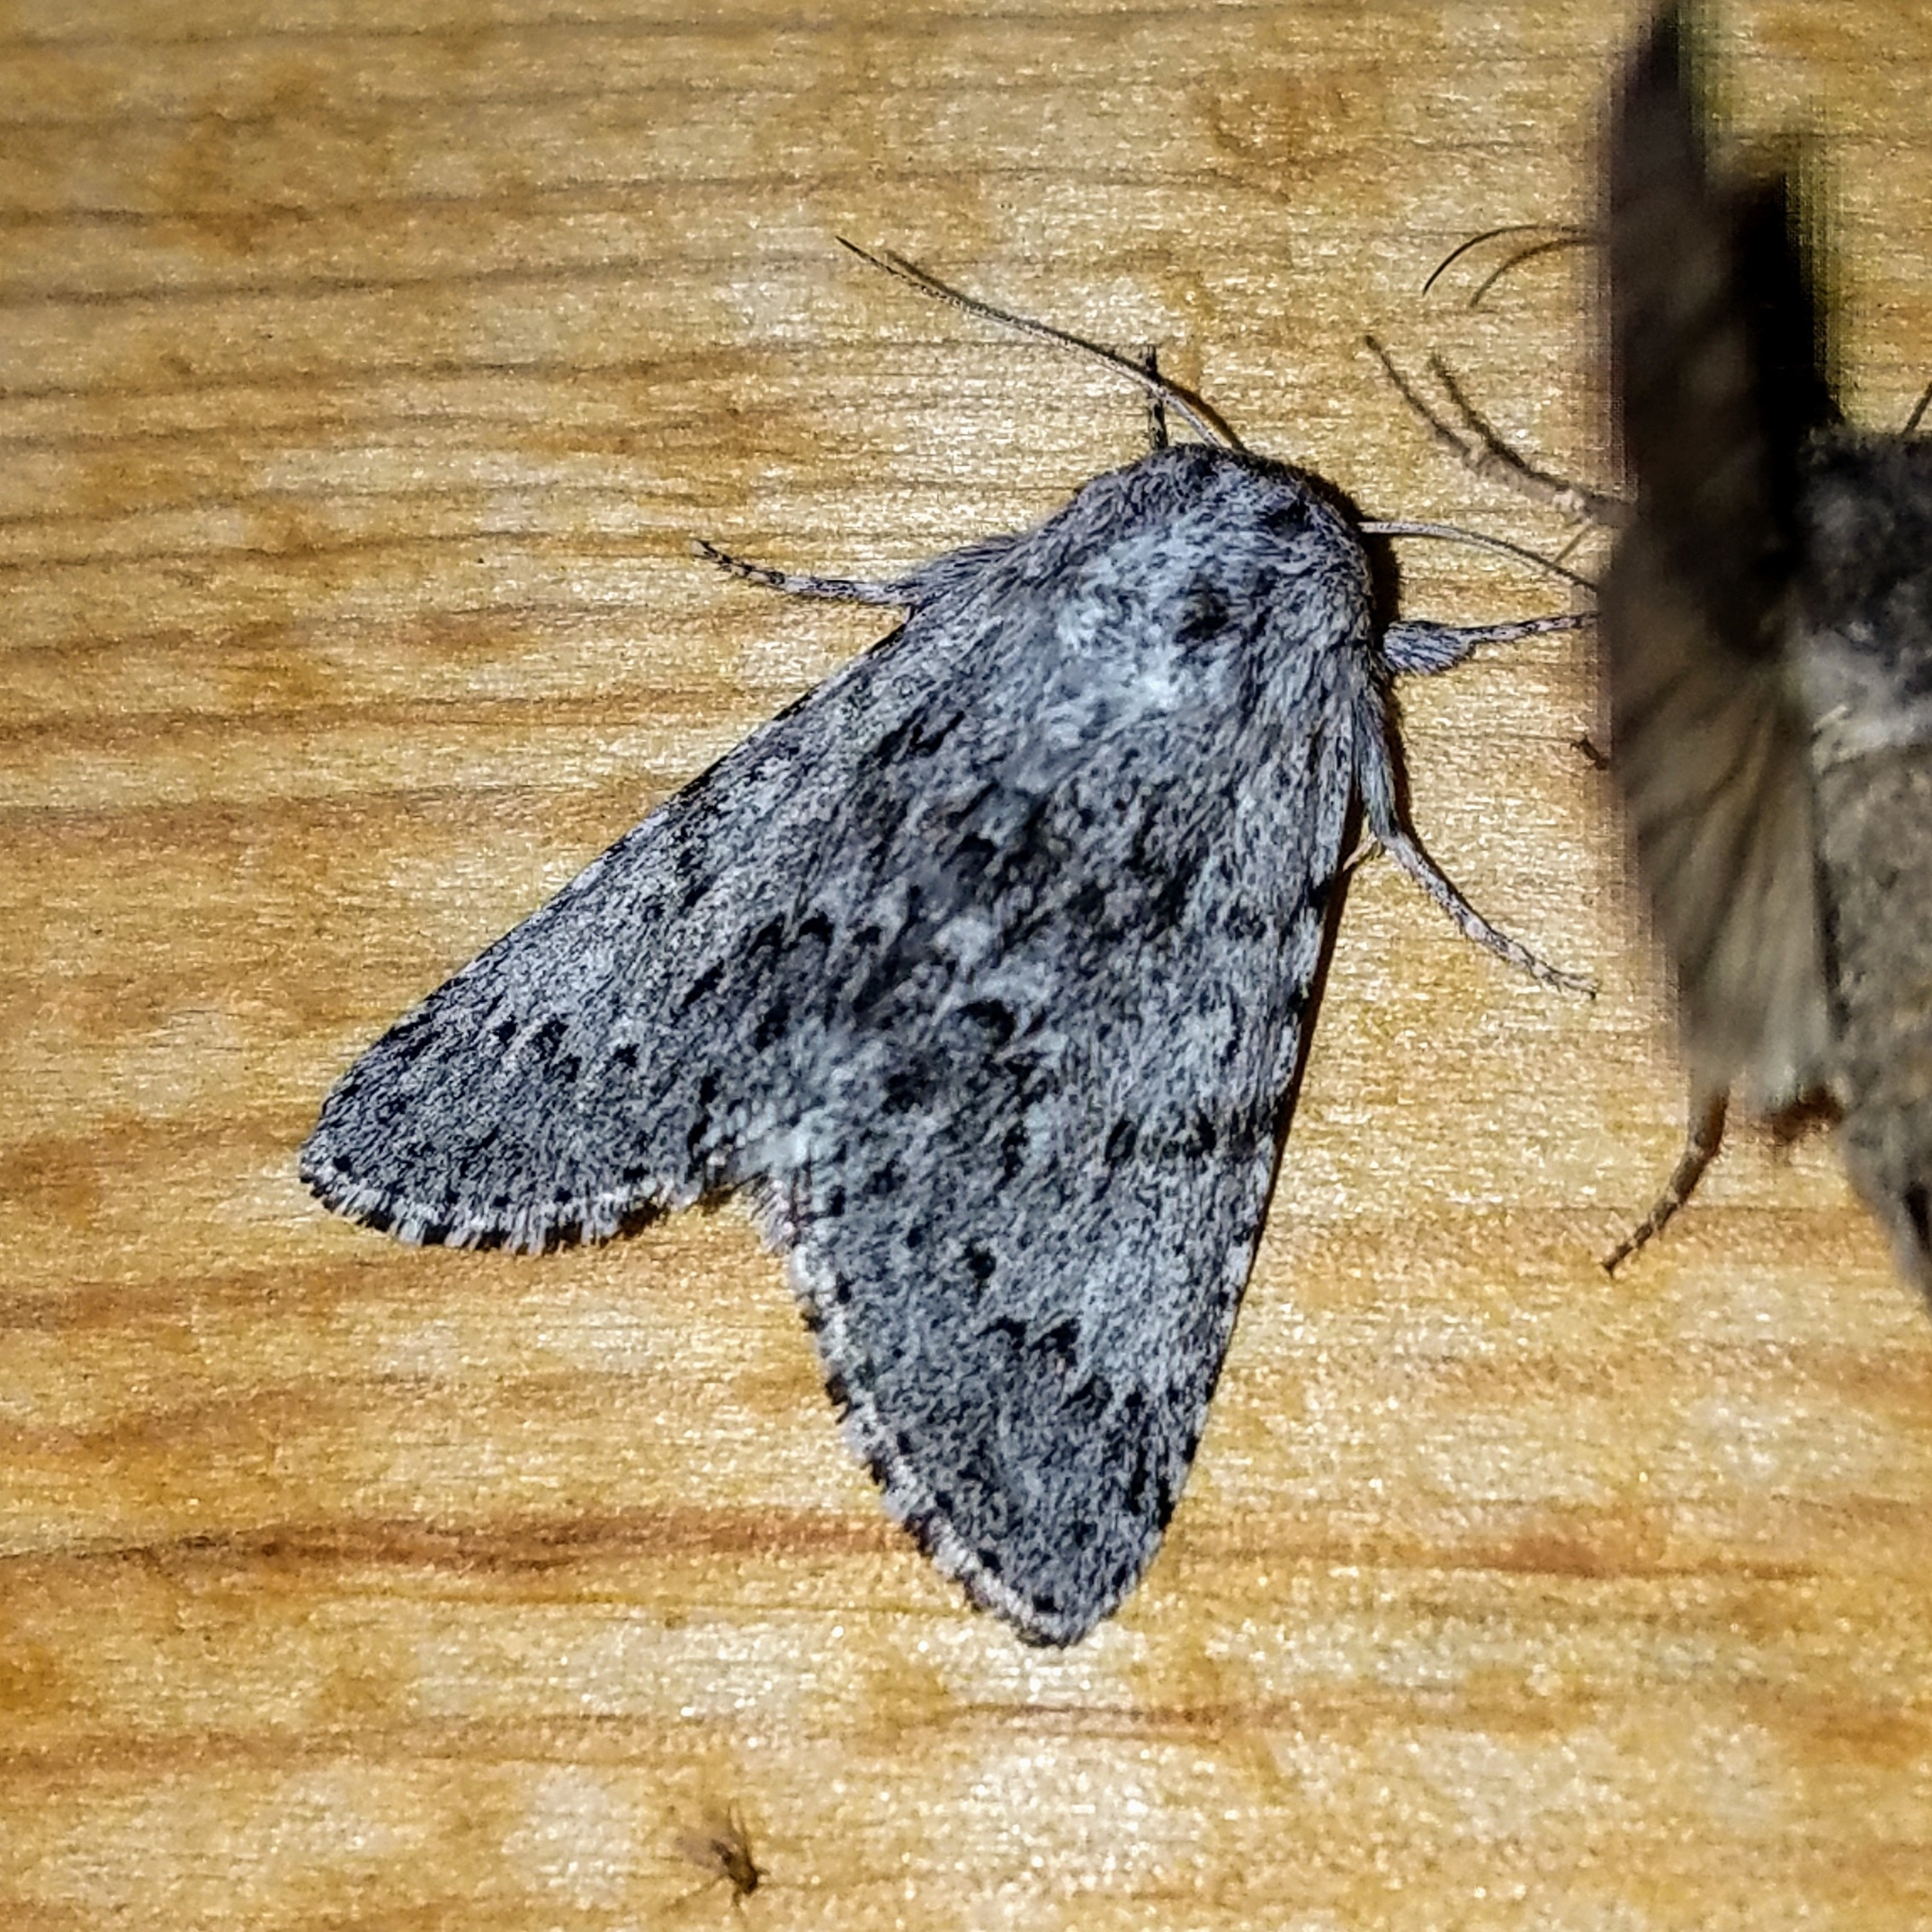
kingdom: Animalia
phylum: Arthropoda
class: Insecta
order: Lepidoptera
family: Noctuidae
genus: Acronicta
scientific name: Acronicta lupini
